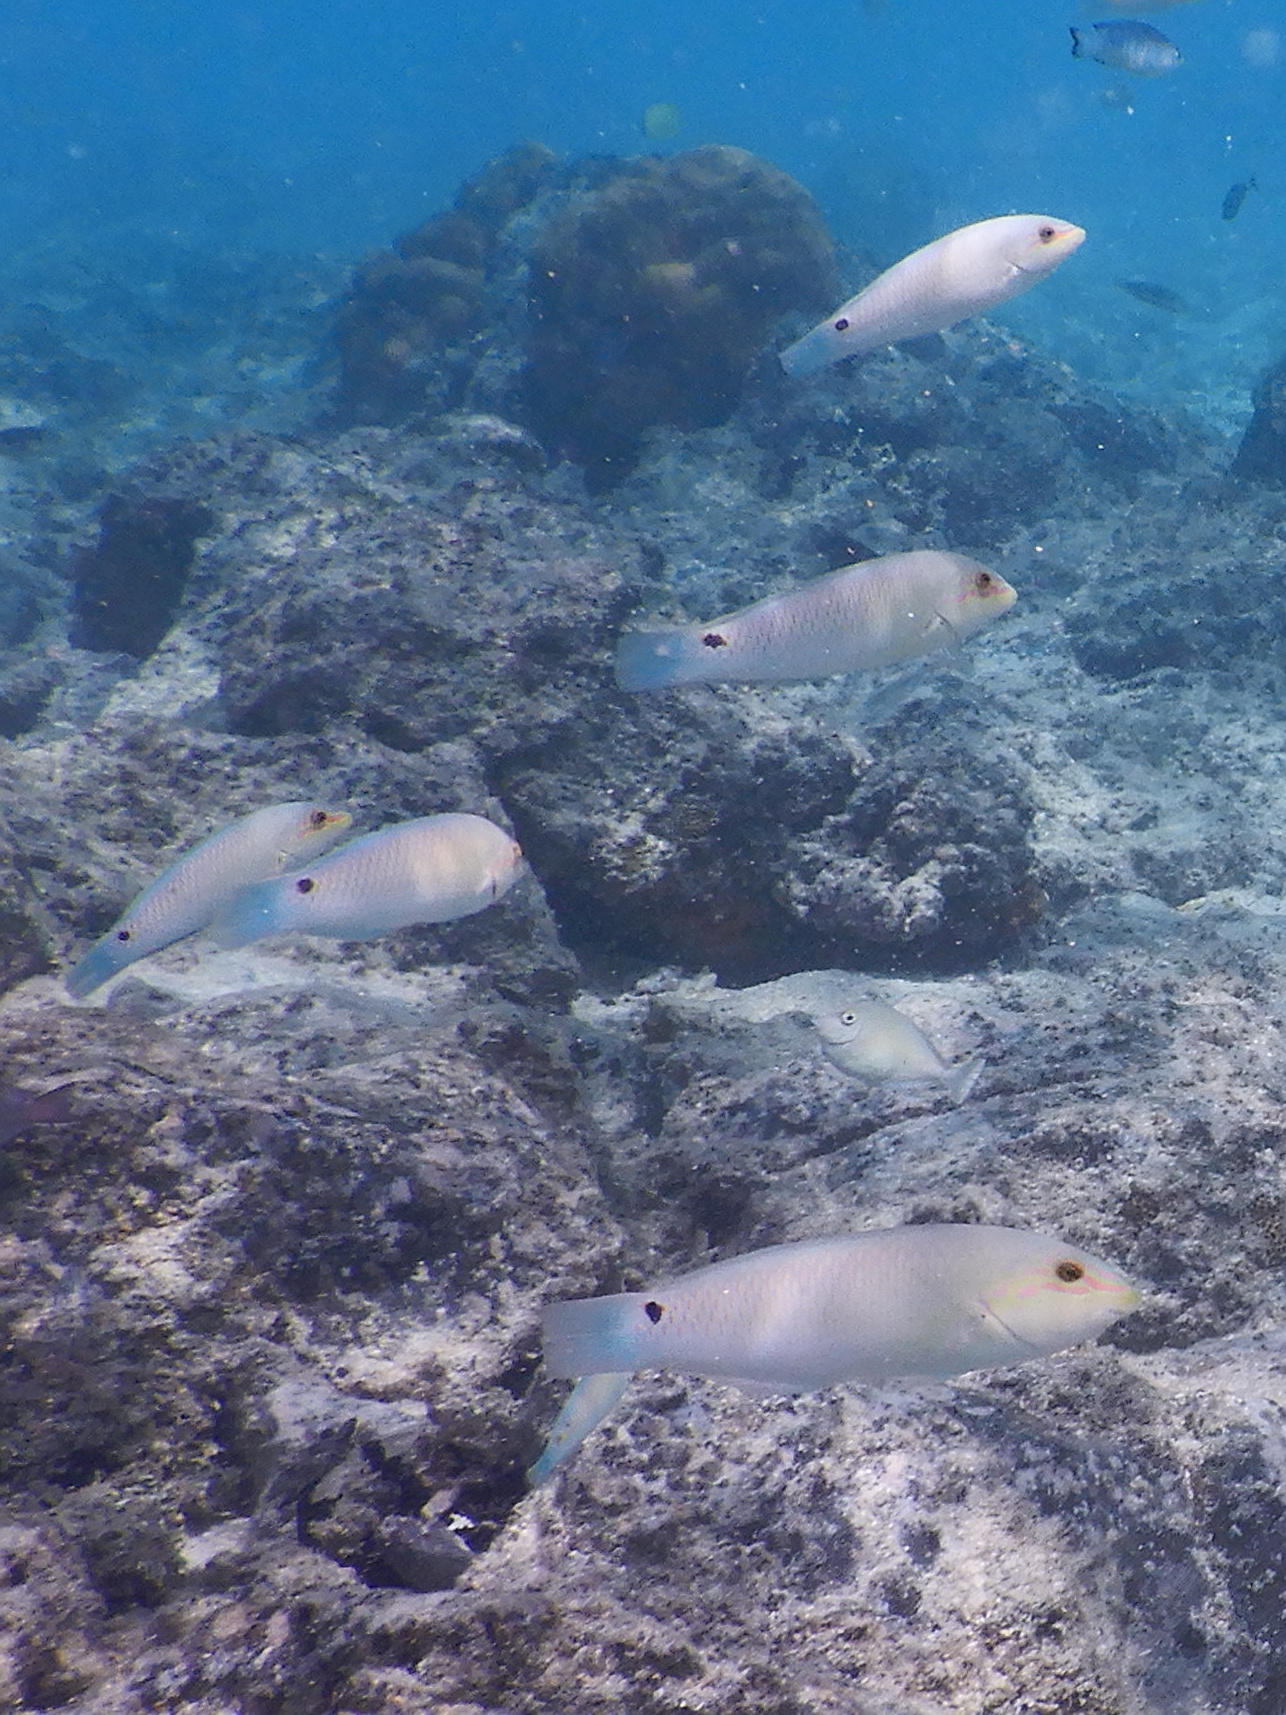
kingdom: Animalia
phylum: Chordata
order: Perciformes
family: Labridae
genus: Halichoeres
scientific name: Halichoeres trimaculatus
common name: Three-spot wrasse
